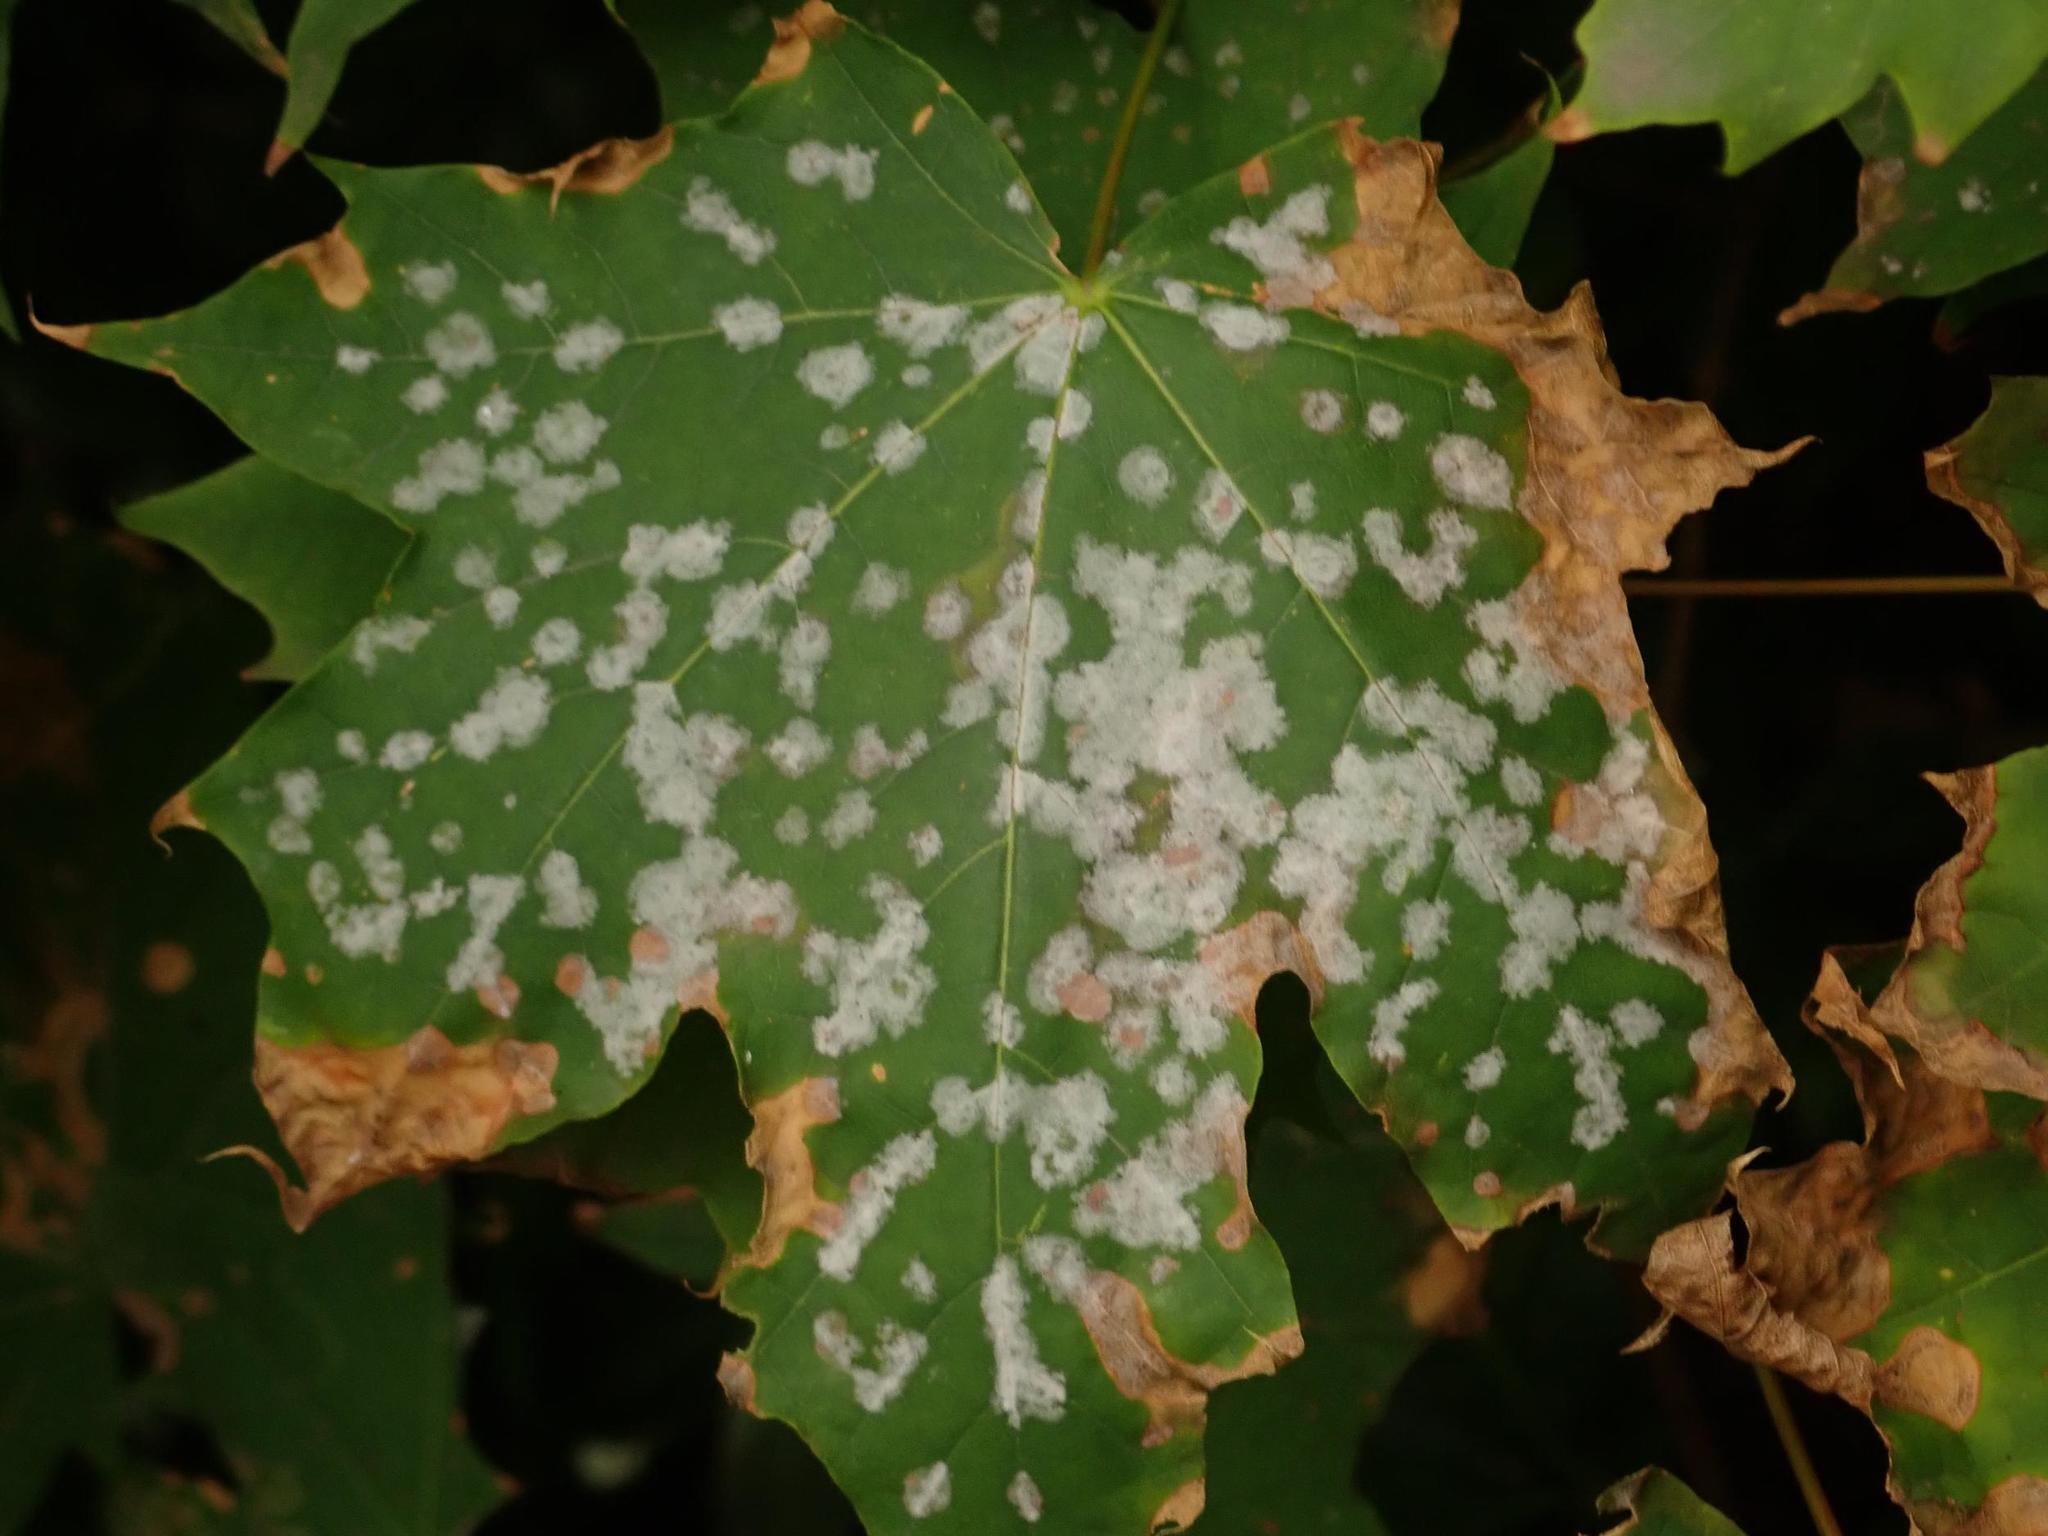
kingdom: Fungi
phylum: Ascomycota
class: Leotiomycetes
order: Helotiales
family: Erysiphaceae
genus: Sawadaea
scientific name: Sawadaea tulasnei
